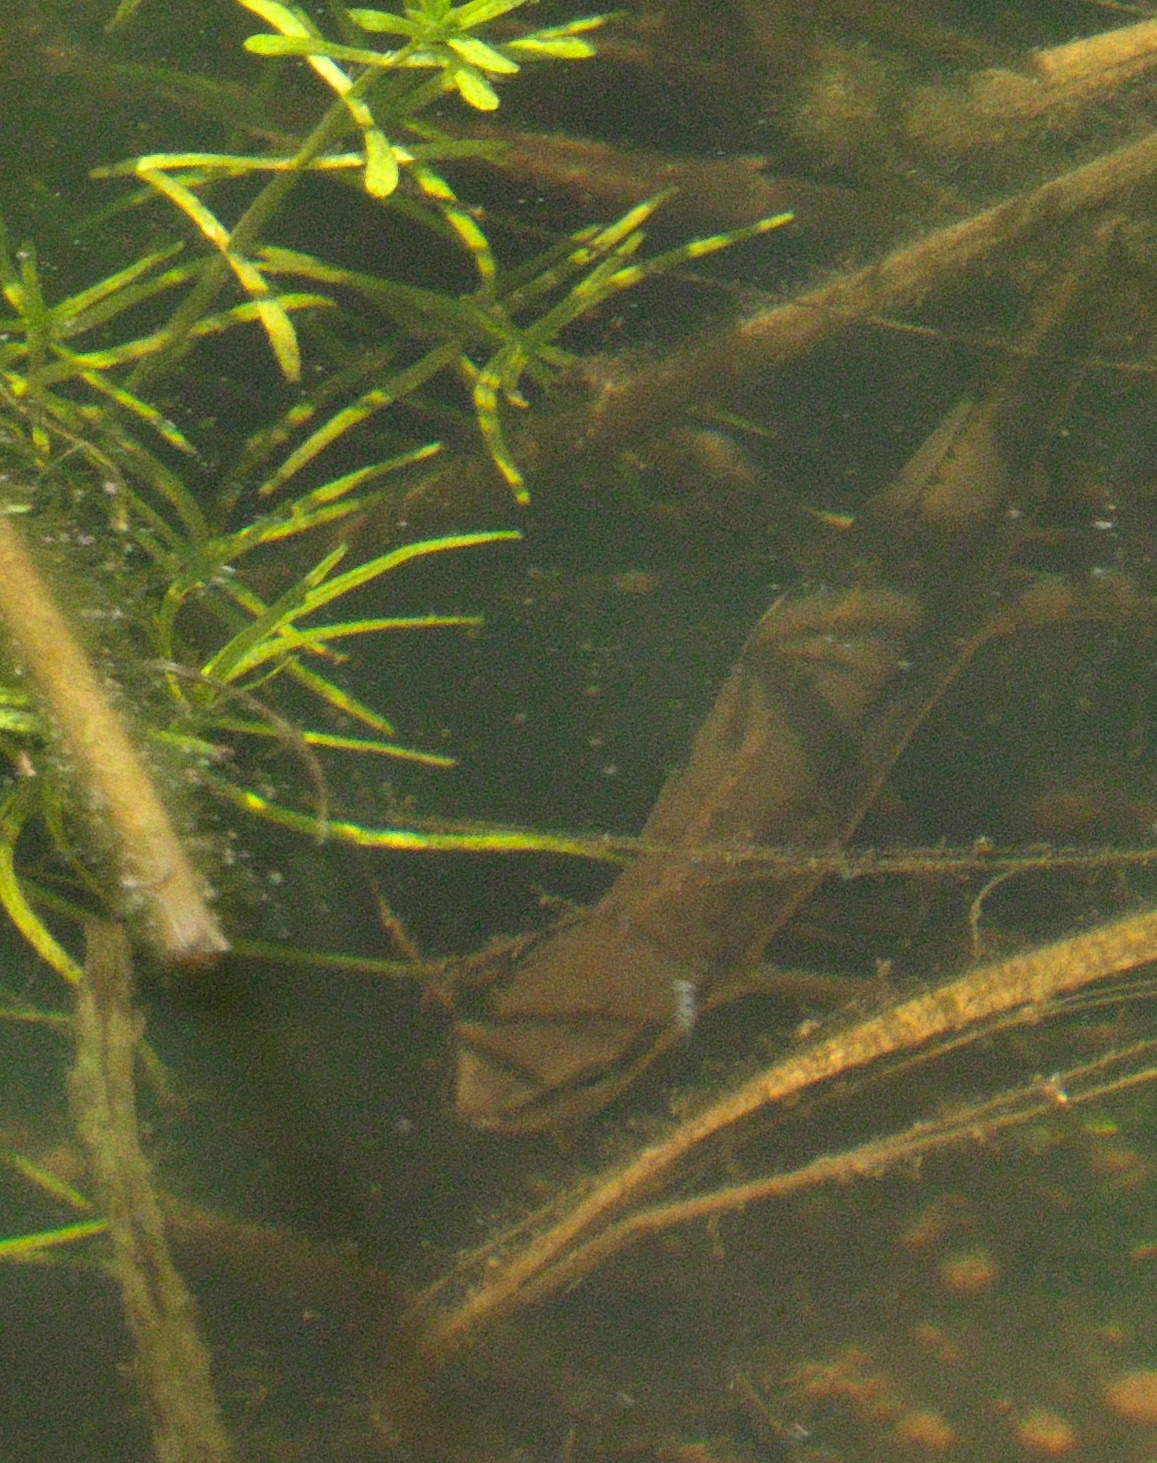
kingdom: Animalia
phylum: Chordata
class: Amphibia
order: Caudata
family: Salamandridae
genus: Notophthalmus
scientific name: Notophthalmus viridescens
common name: Eastern newt
